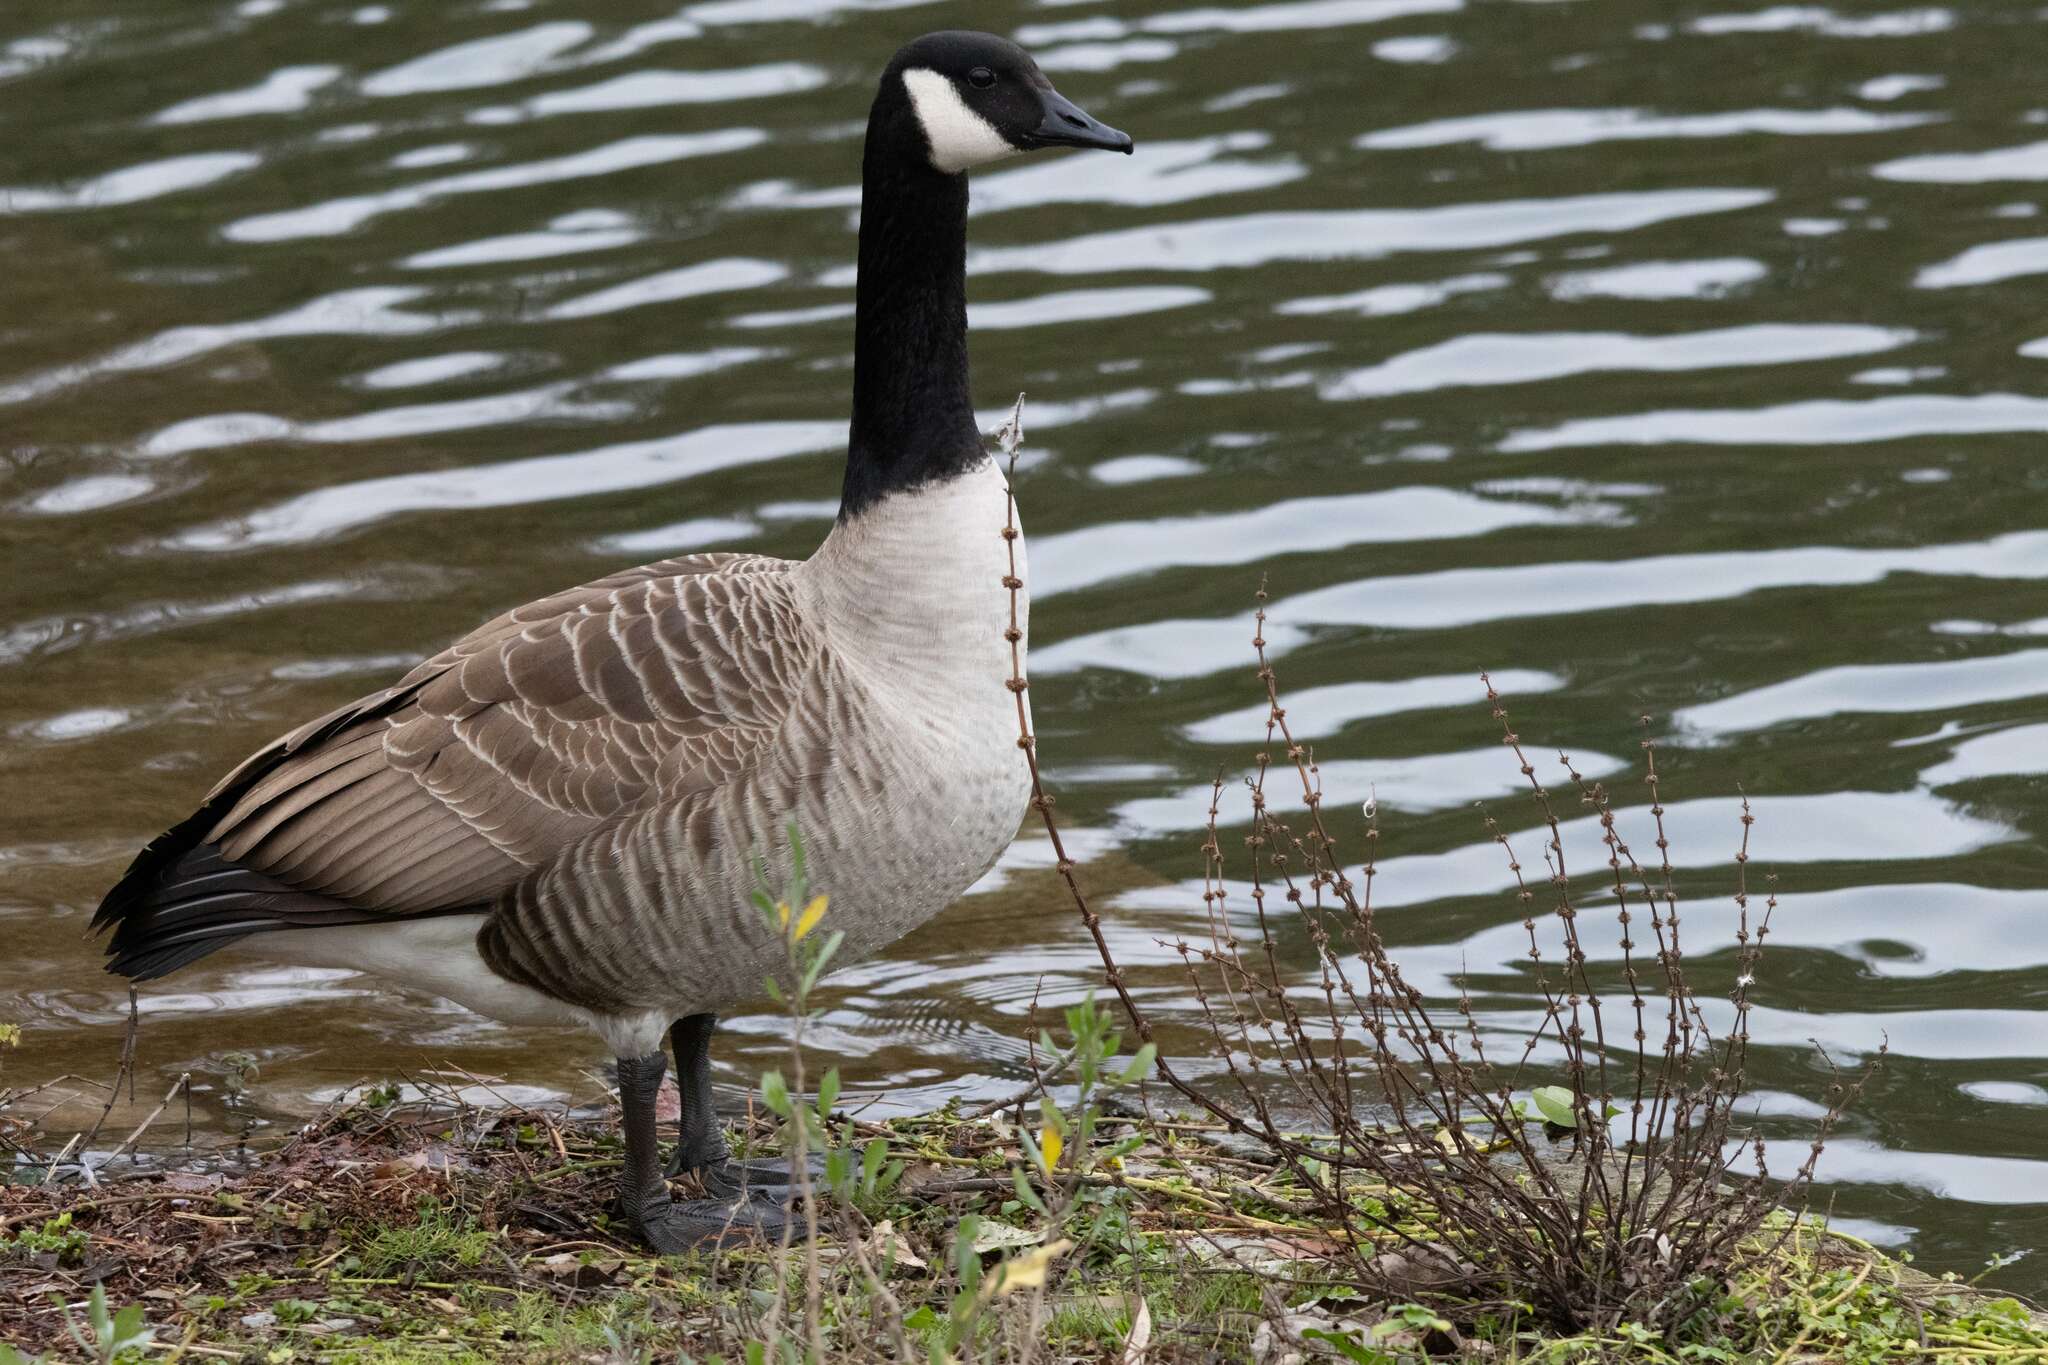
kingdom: Animalia
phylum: Chordata
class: Aves
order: Anseriformes
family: Anatidae
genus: Branta
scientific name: Branta canadensis
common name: Canada goose
